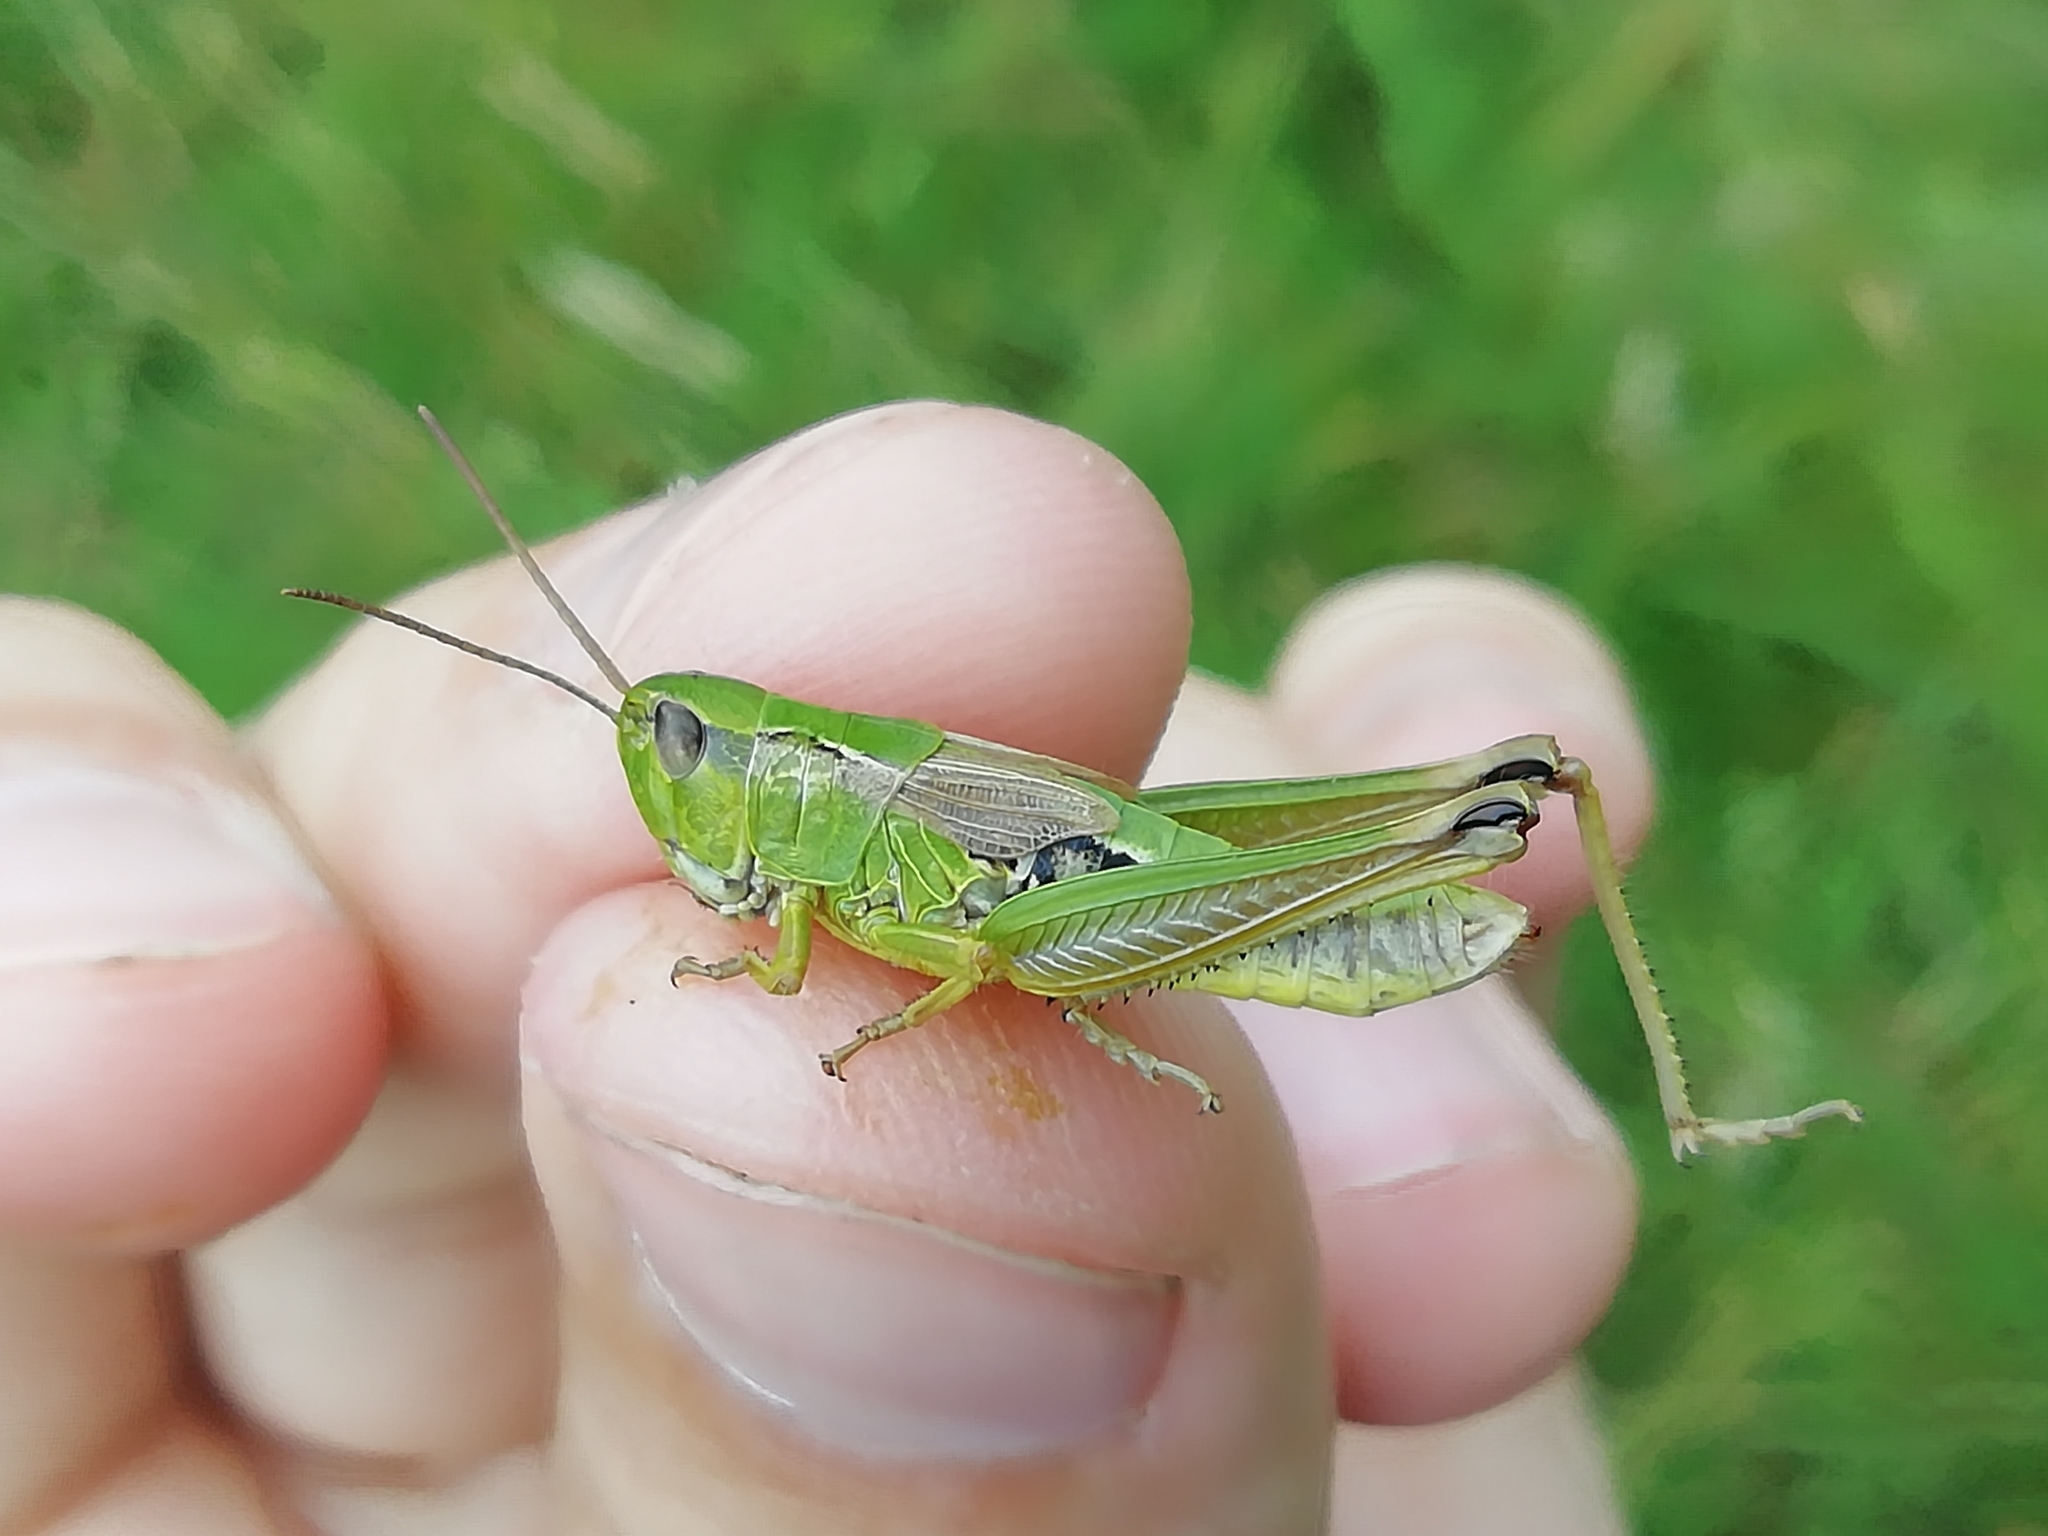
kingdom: Animalia
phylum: Arthropoda
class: Insecta
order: Orthoptera
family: Acrididae
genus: Chorthippus
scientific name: Chorthippus fallax
